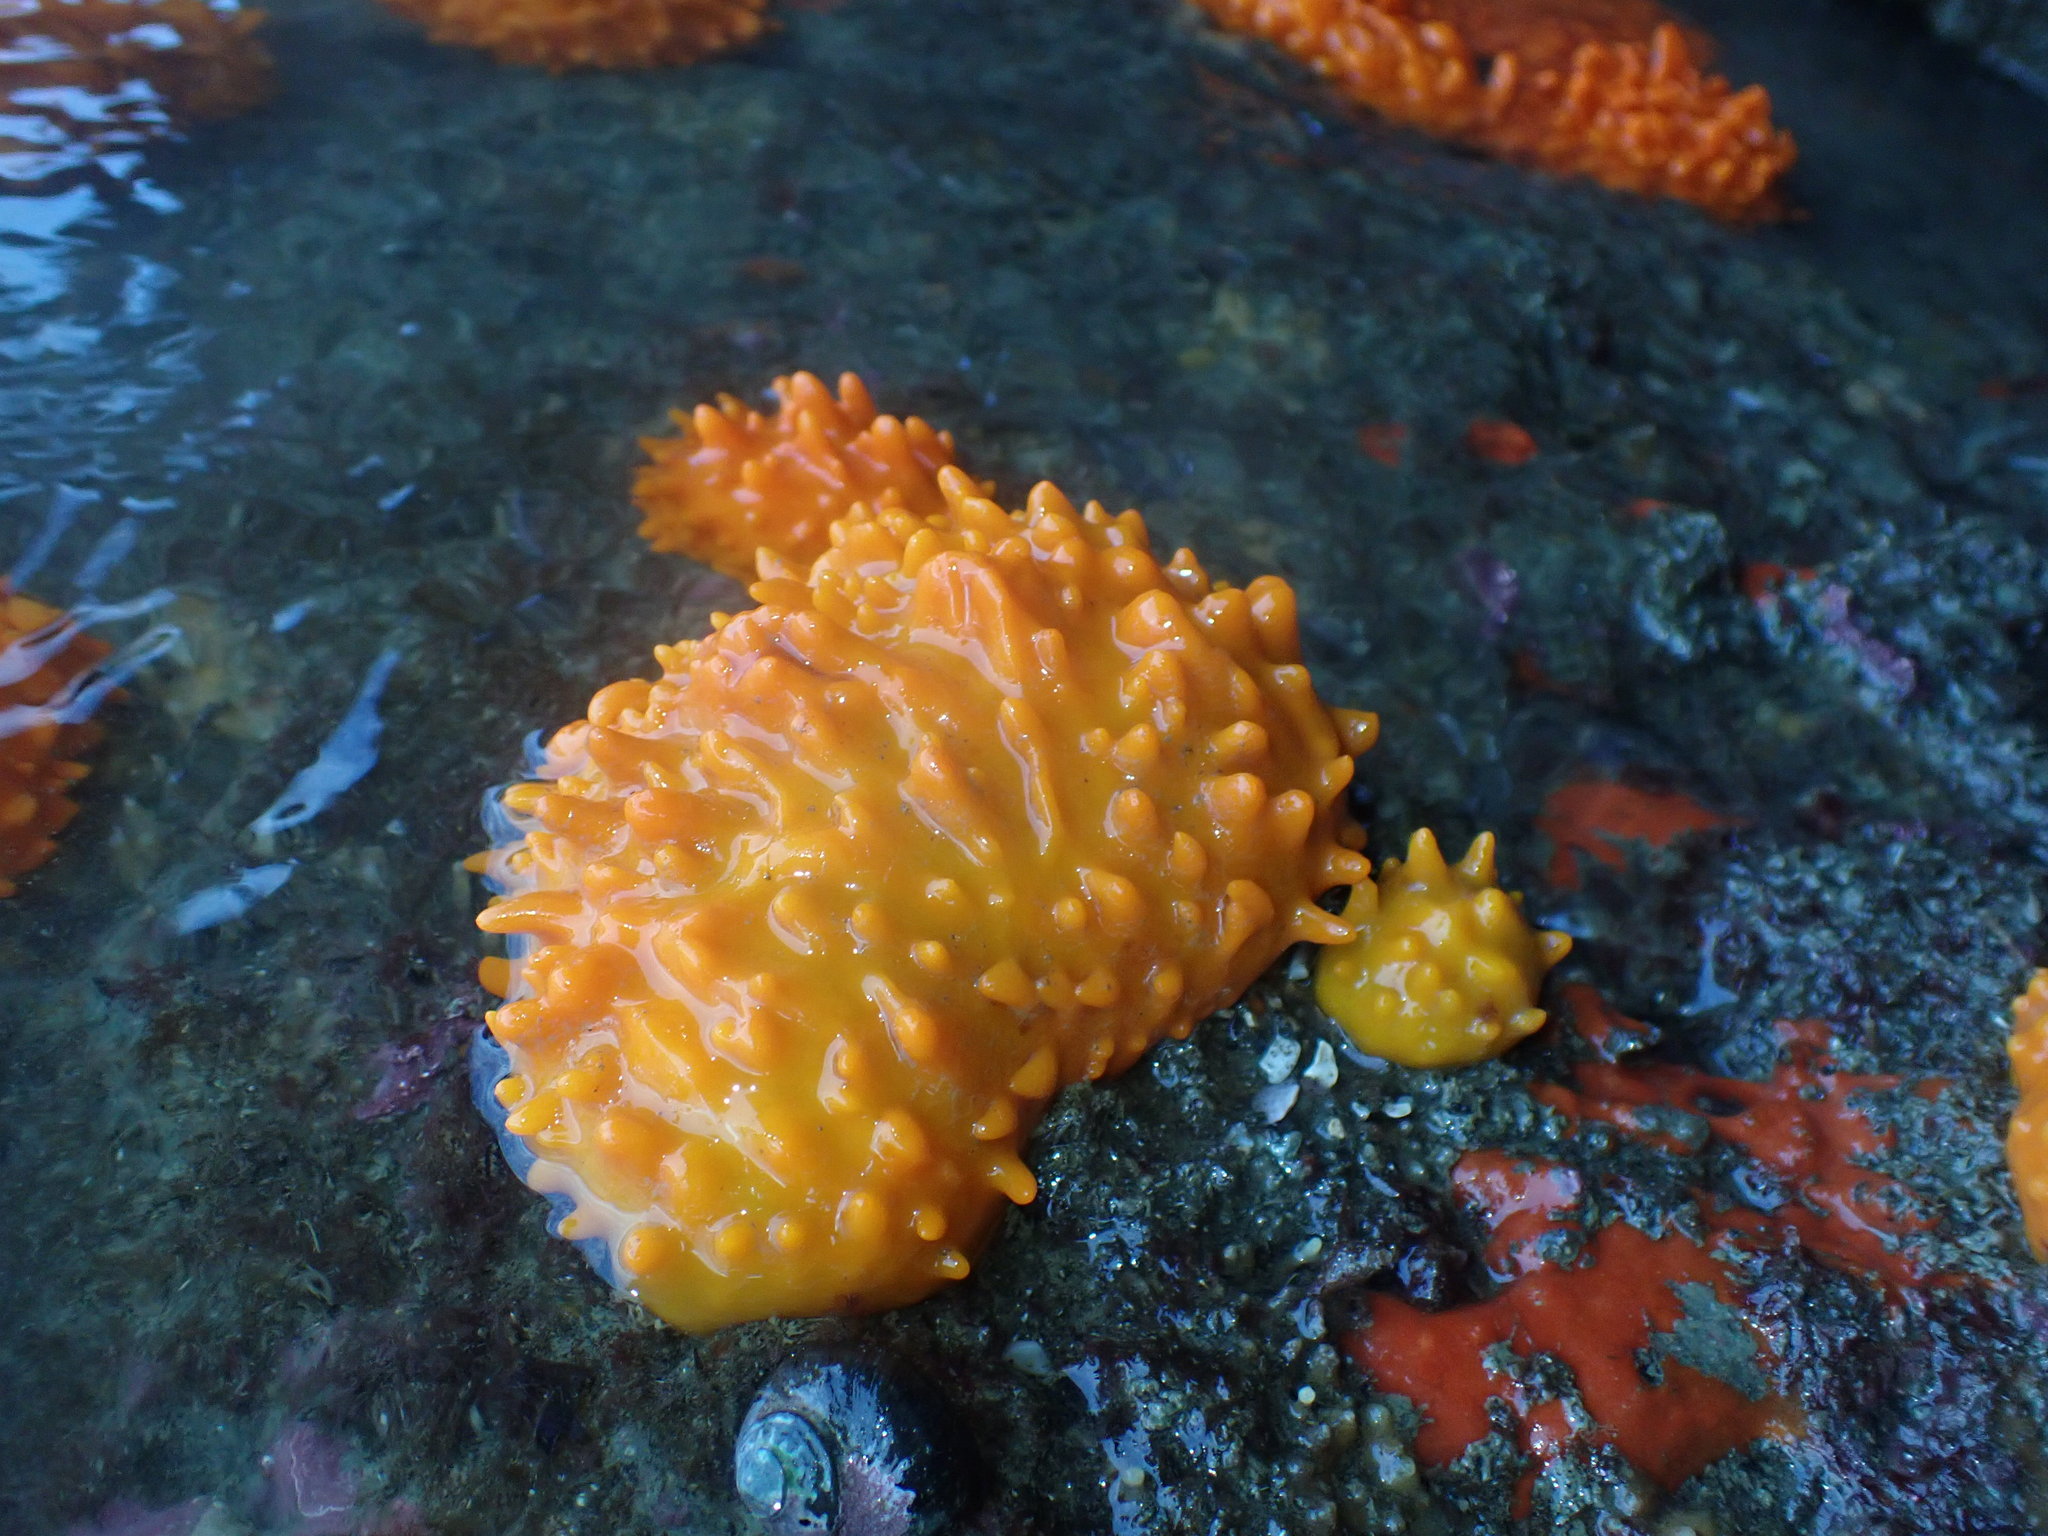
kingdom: Animalia
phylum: Porifera
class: Demospongiae
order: Polymastiida
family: Polymastiidae
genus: Polymastia
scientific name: Polymastia aurantia
